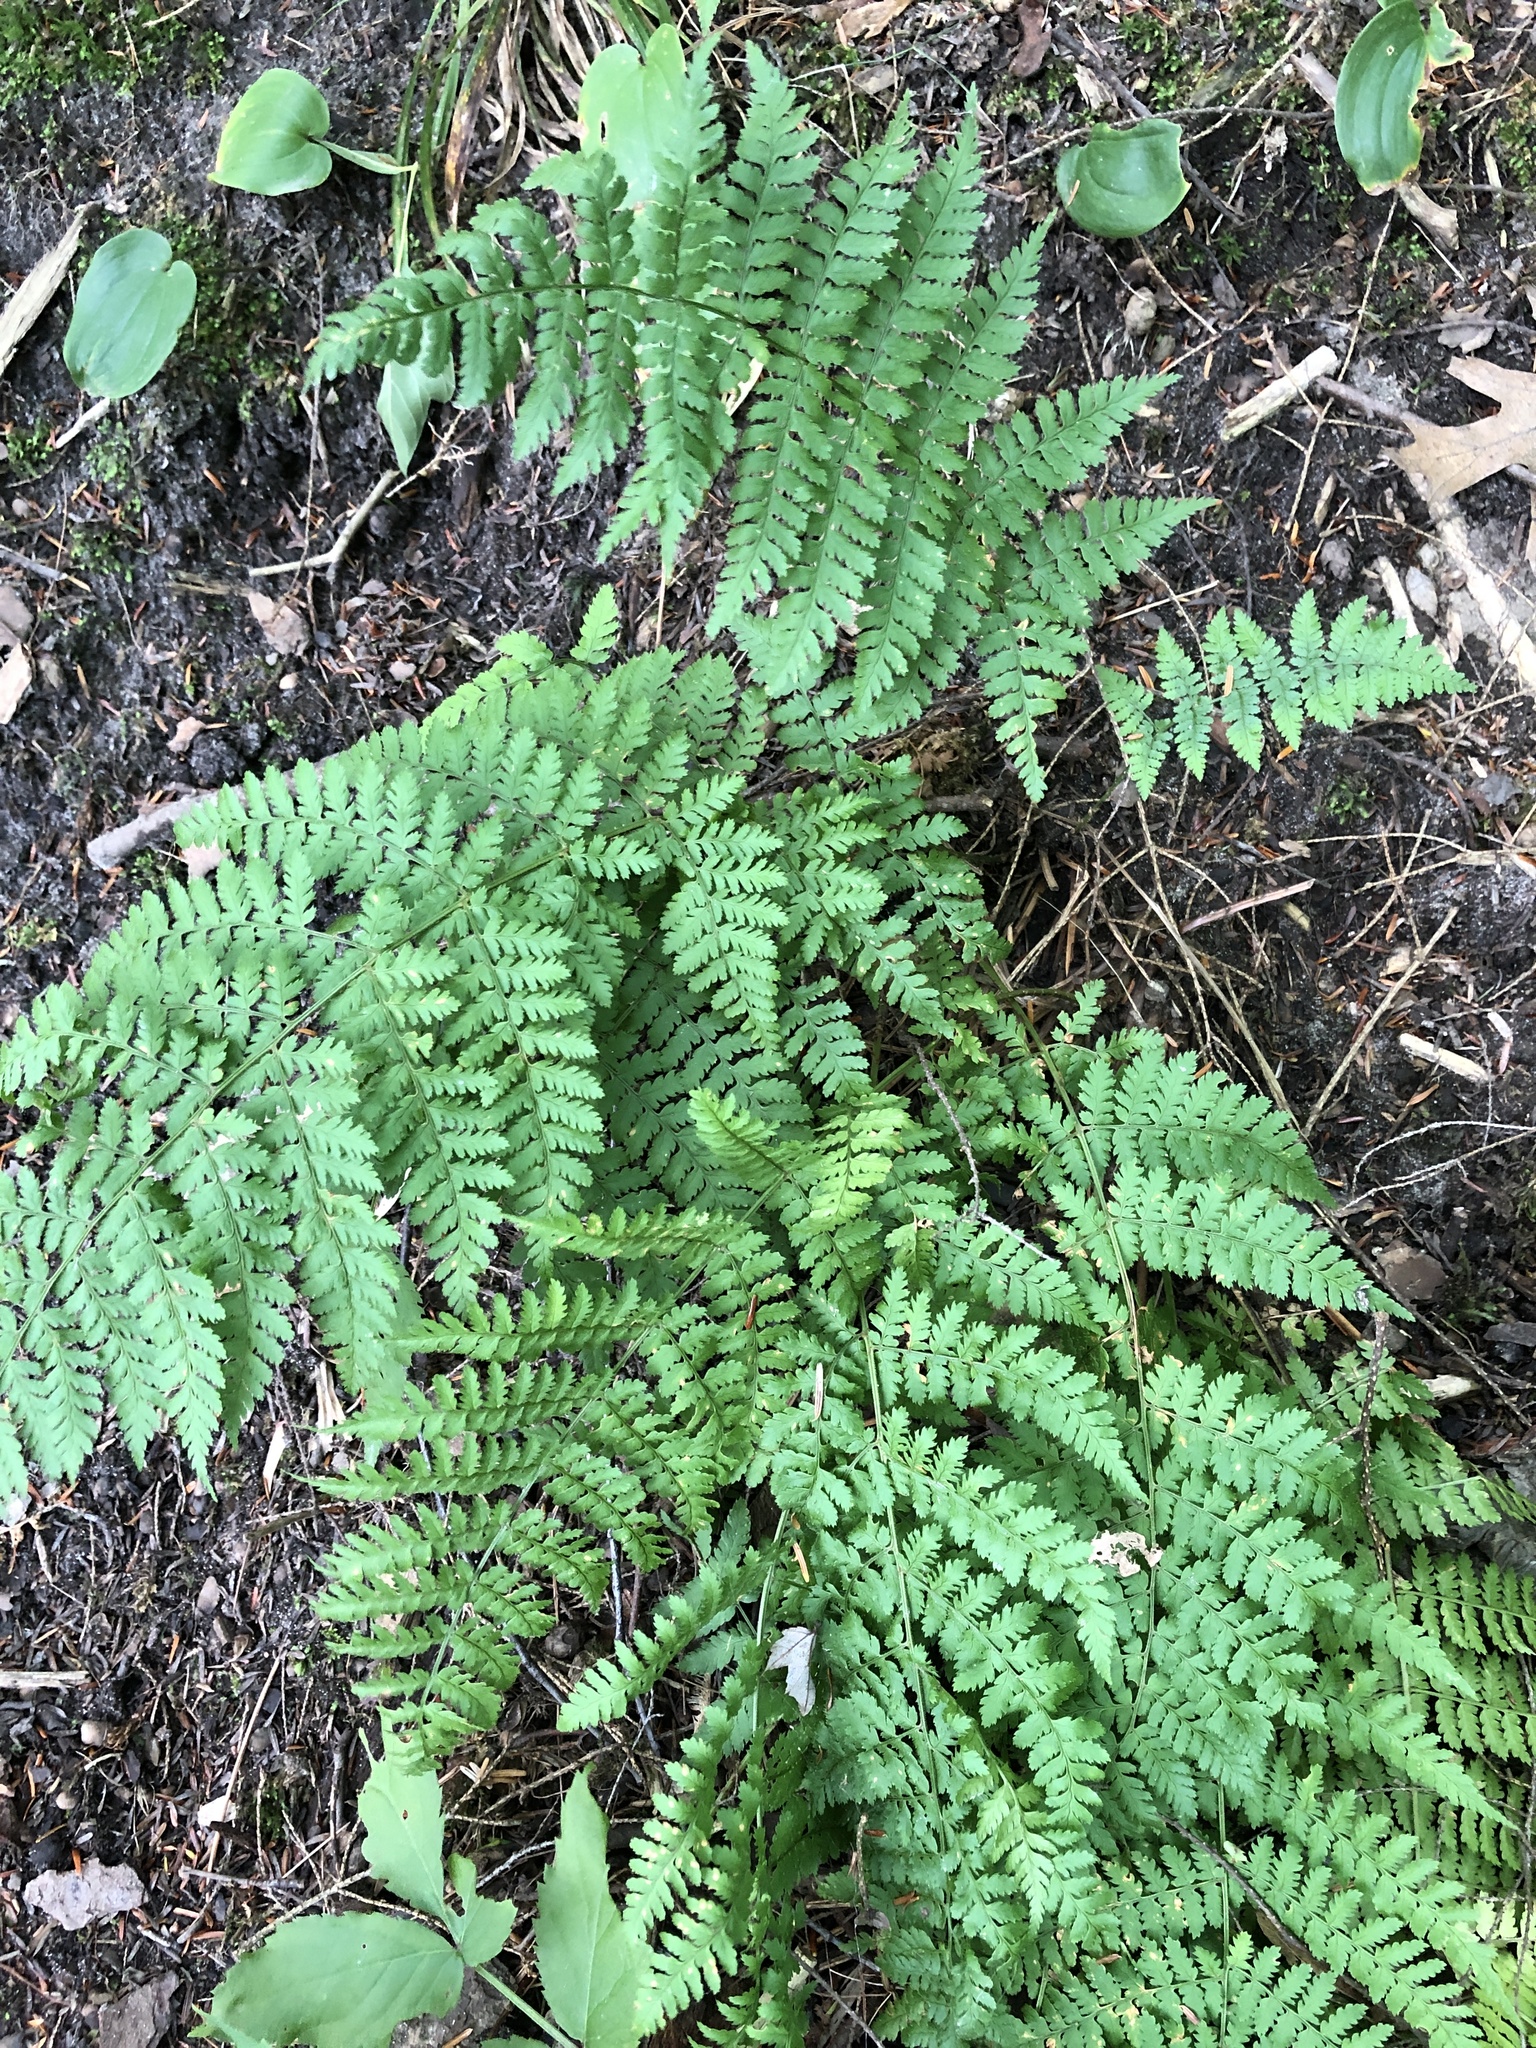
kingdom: Plantae
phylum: Tracheophyta
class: Polypodiopsida
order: Polypodiales
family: Dryopteridaceae
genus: Dryopteris
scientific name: Dryopteris intermedia
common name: Evergreen wood fern
